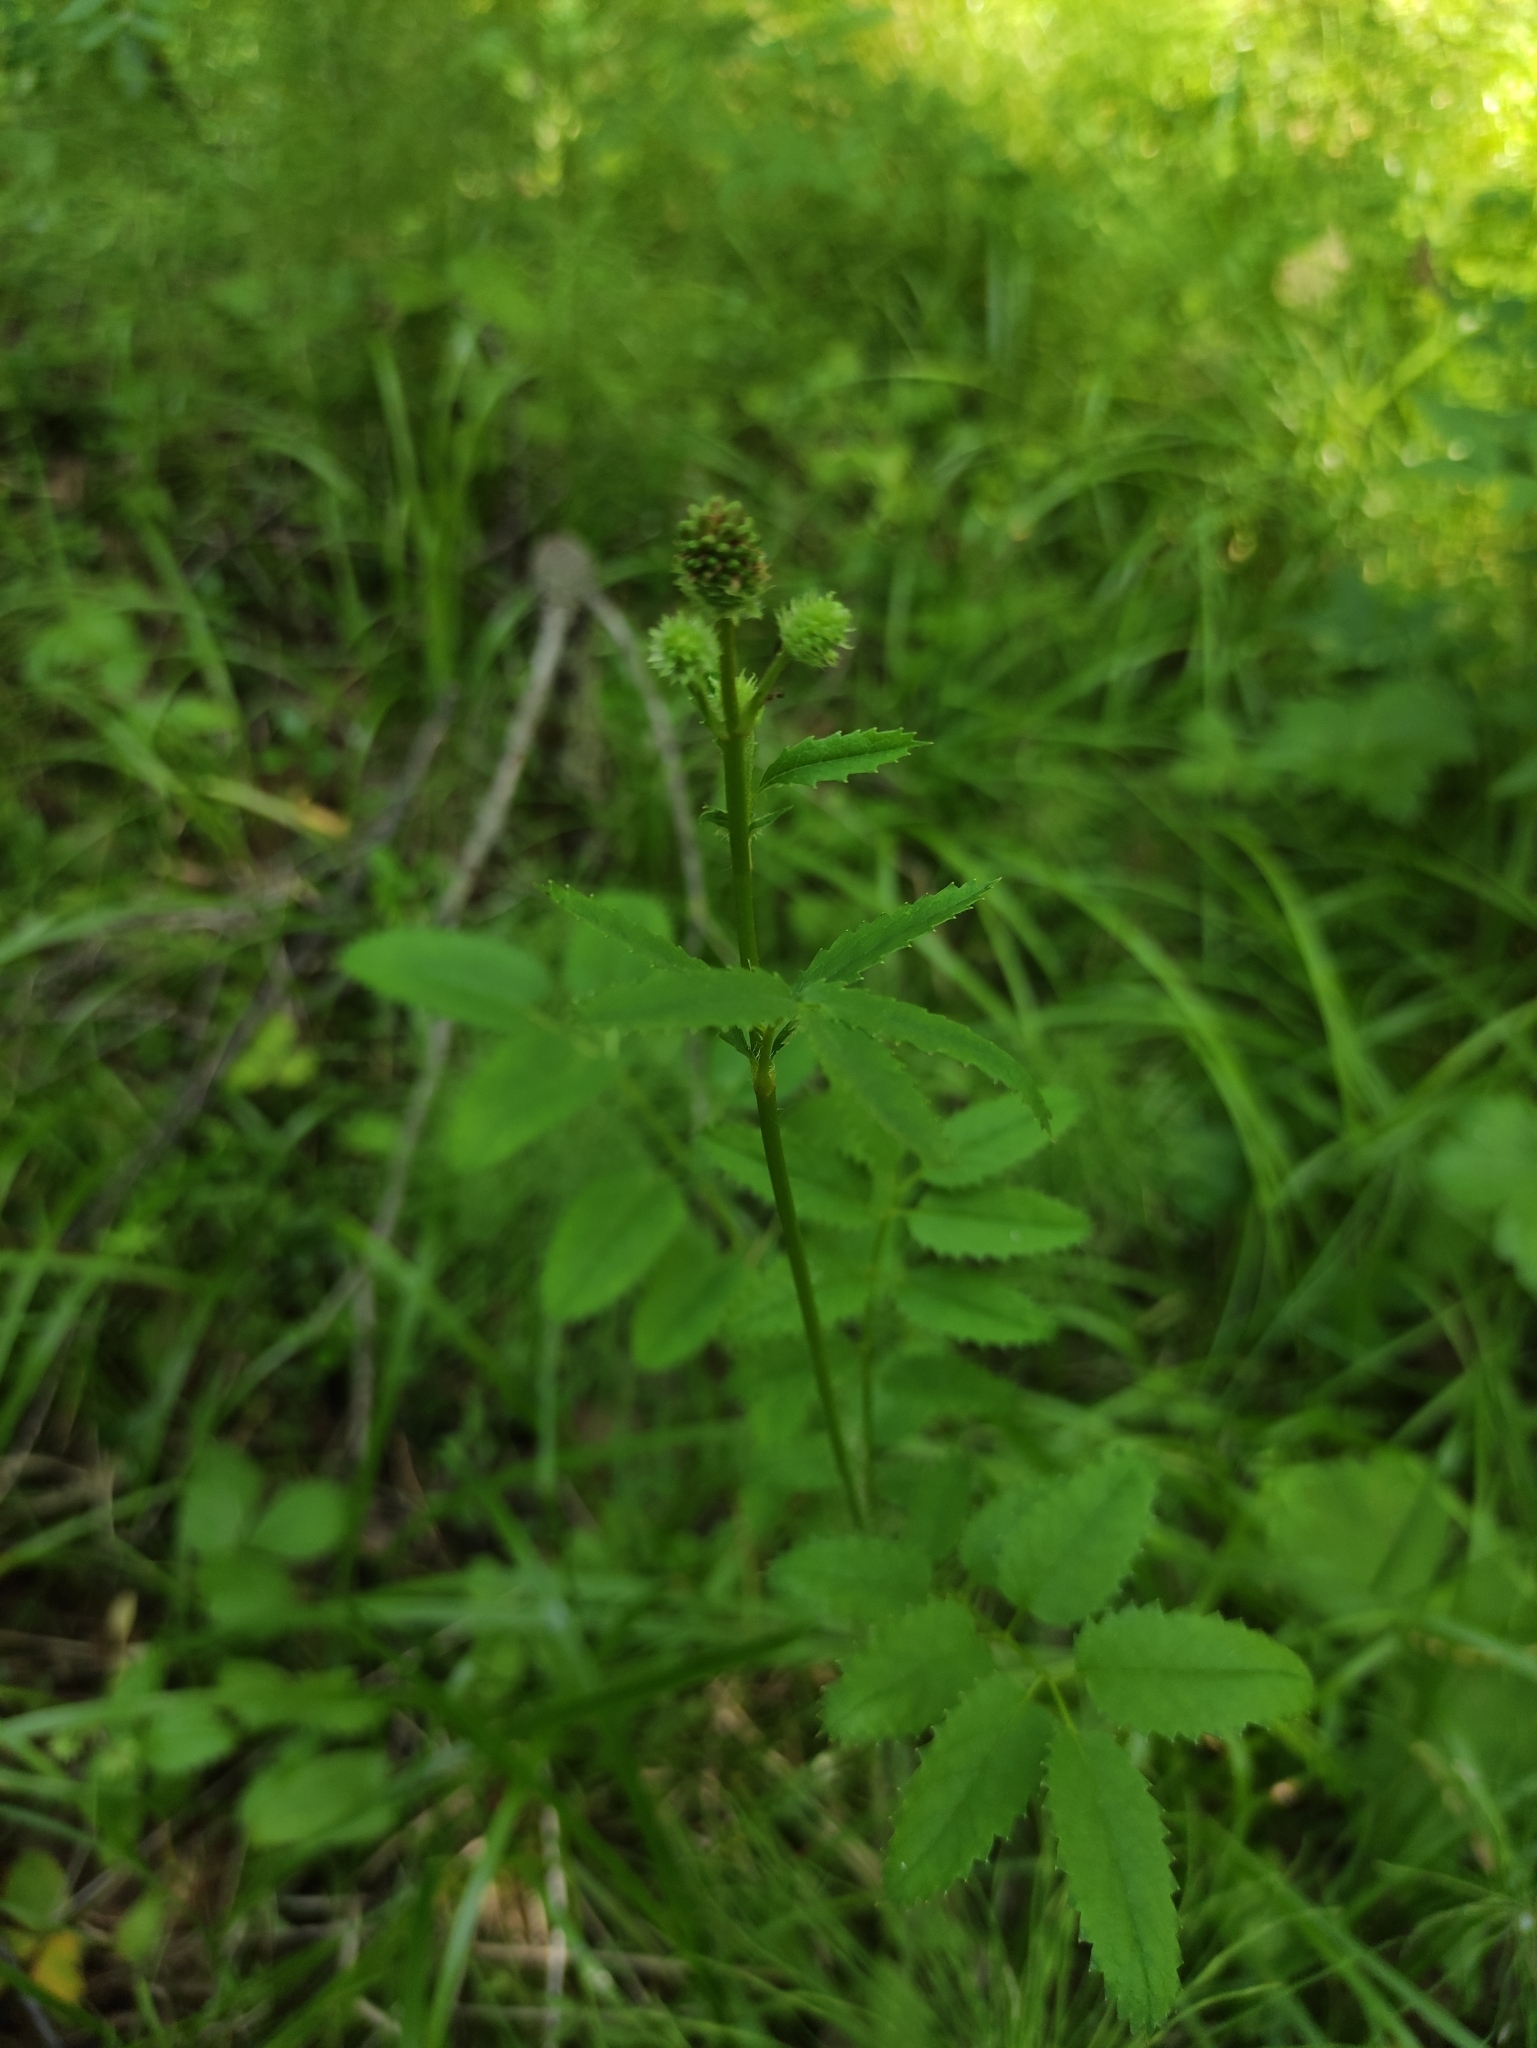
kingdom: Plantae
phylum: Tracheophyta
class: Magnoliopsida
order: Rosales
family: Rosaceae
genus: Sanguisorba
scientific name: Sanguisorba officinalis
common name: Great burnet
